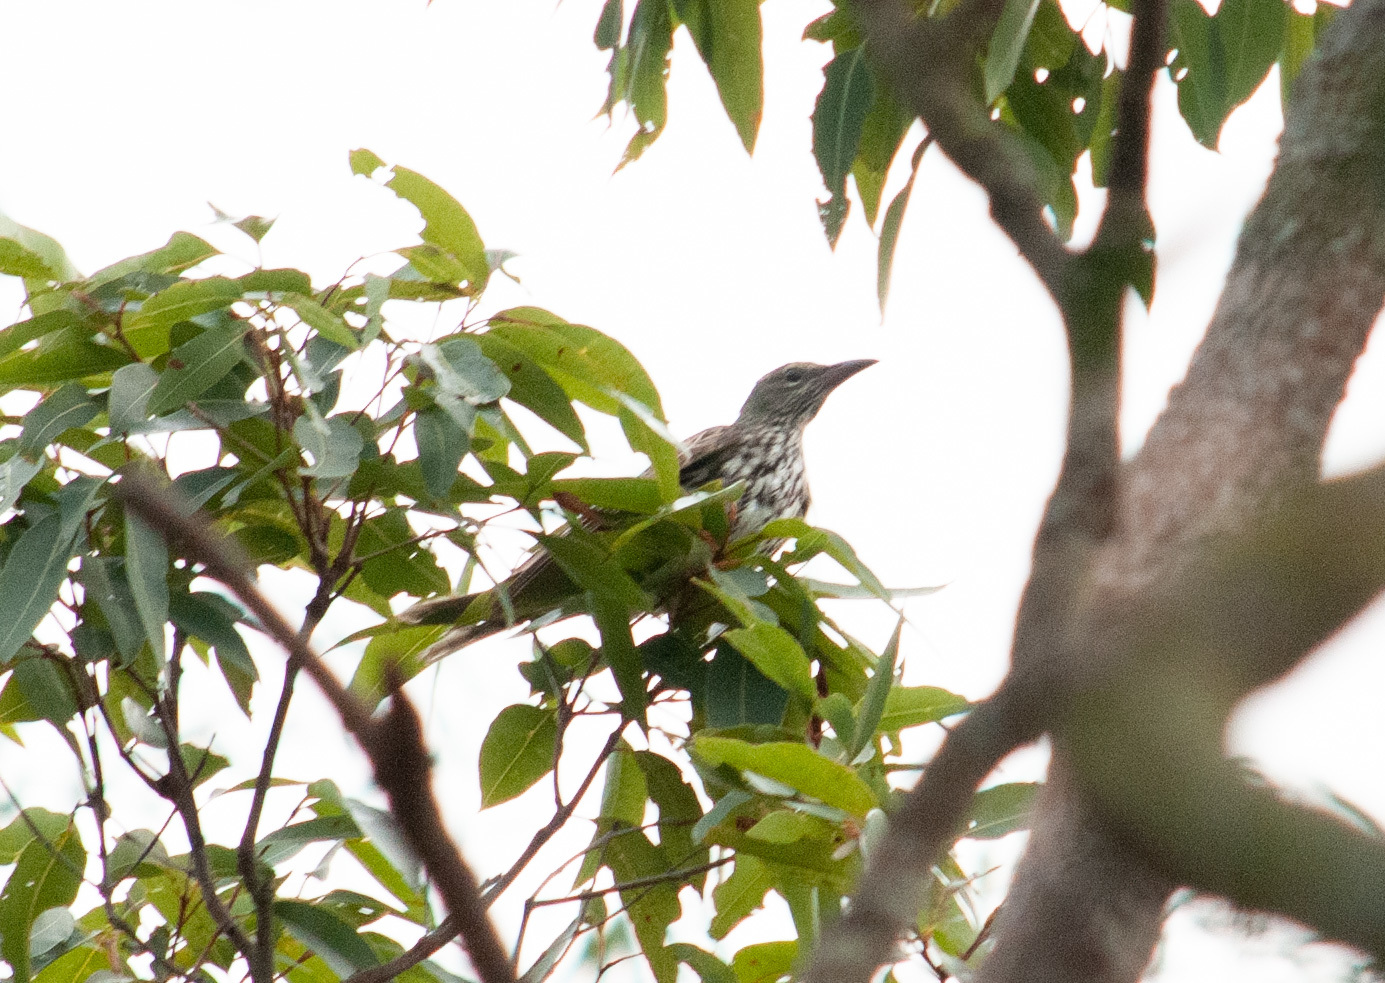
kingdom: Animalia
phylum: Chordata
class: Aves
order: Passeriformes
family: Oriolidae
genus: Oriolus
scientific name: Oriolus sagittatus
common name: Olive-backed oriole
